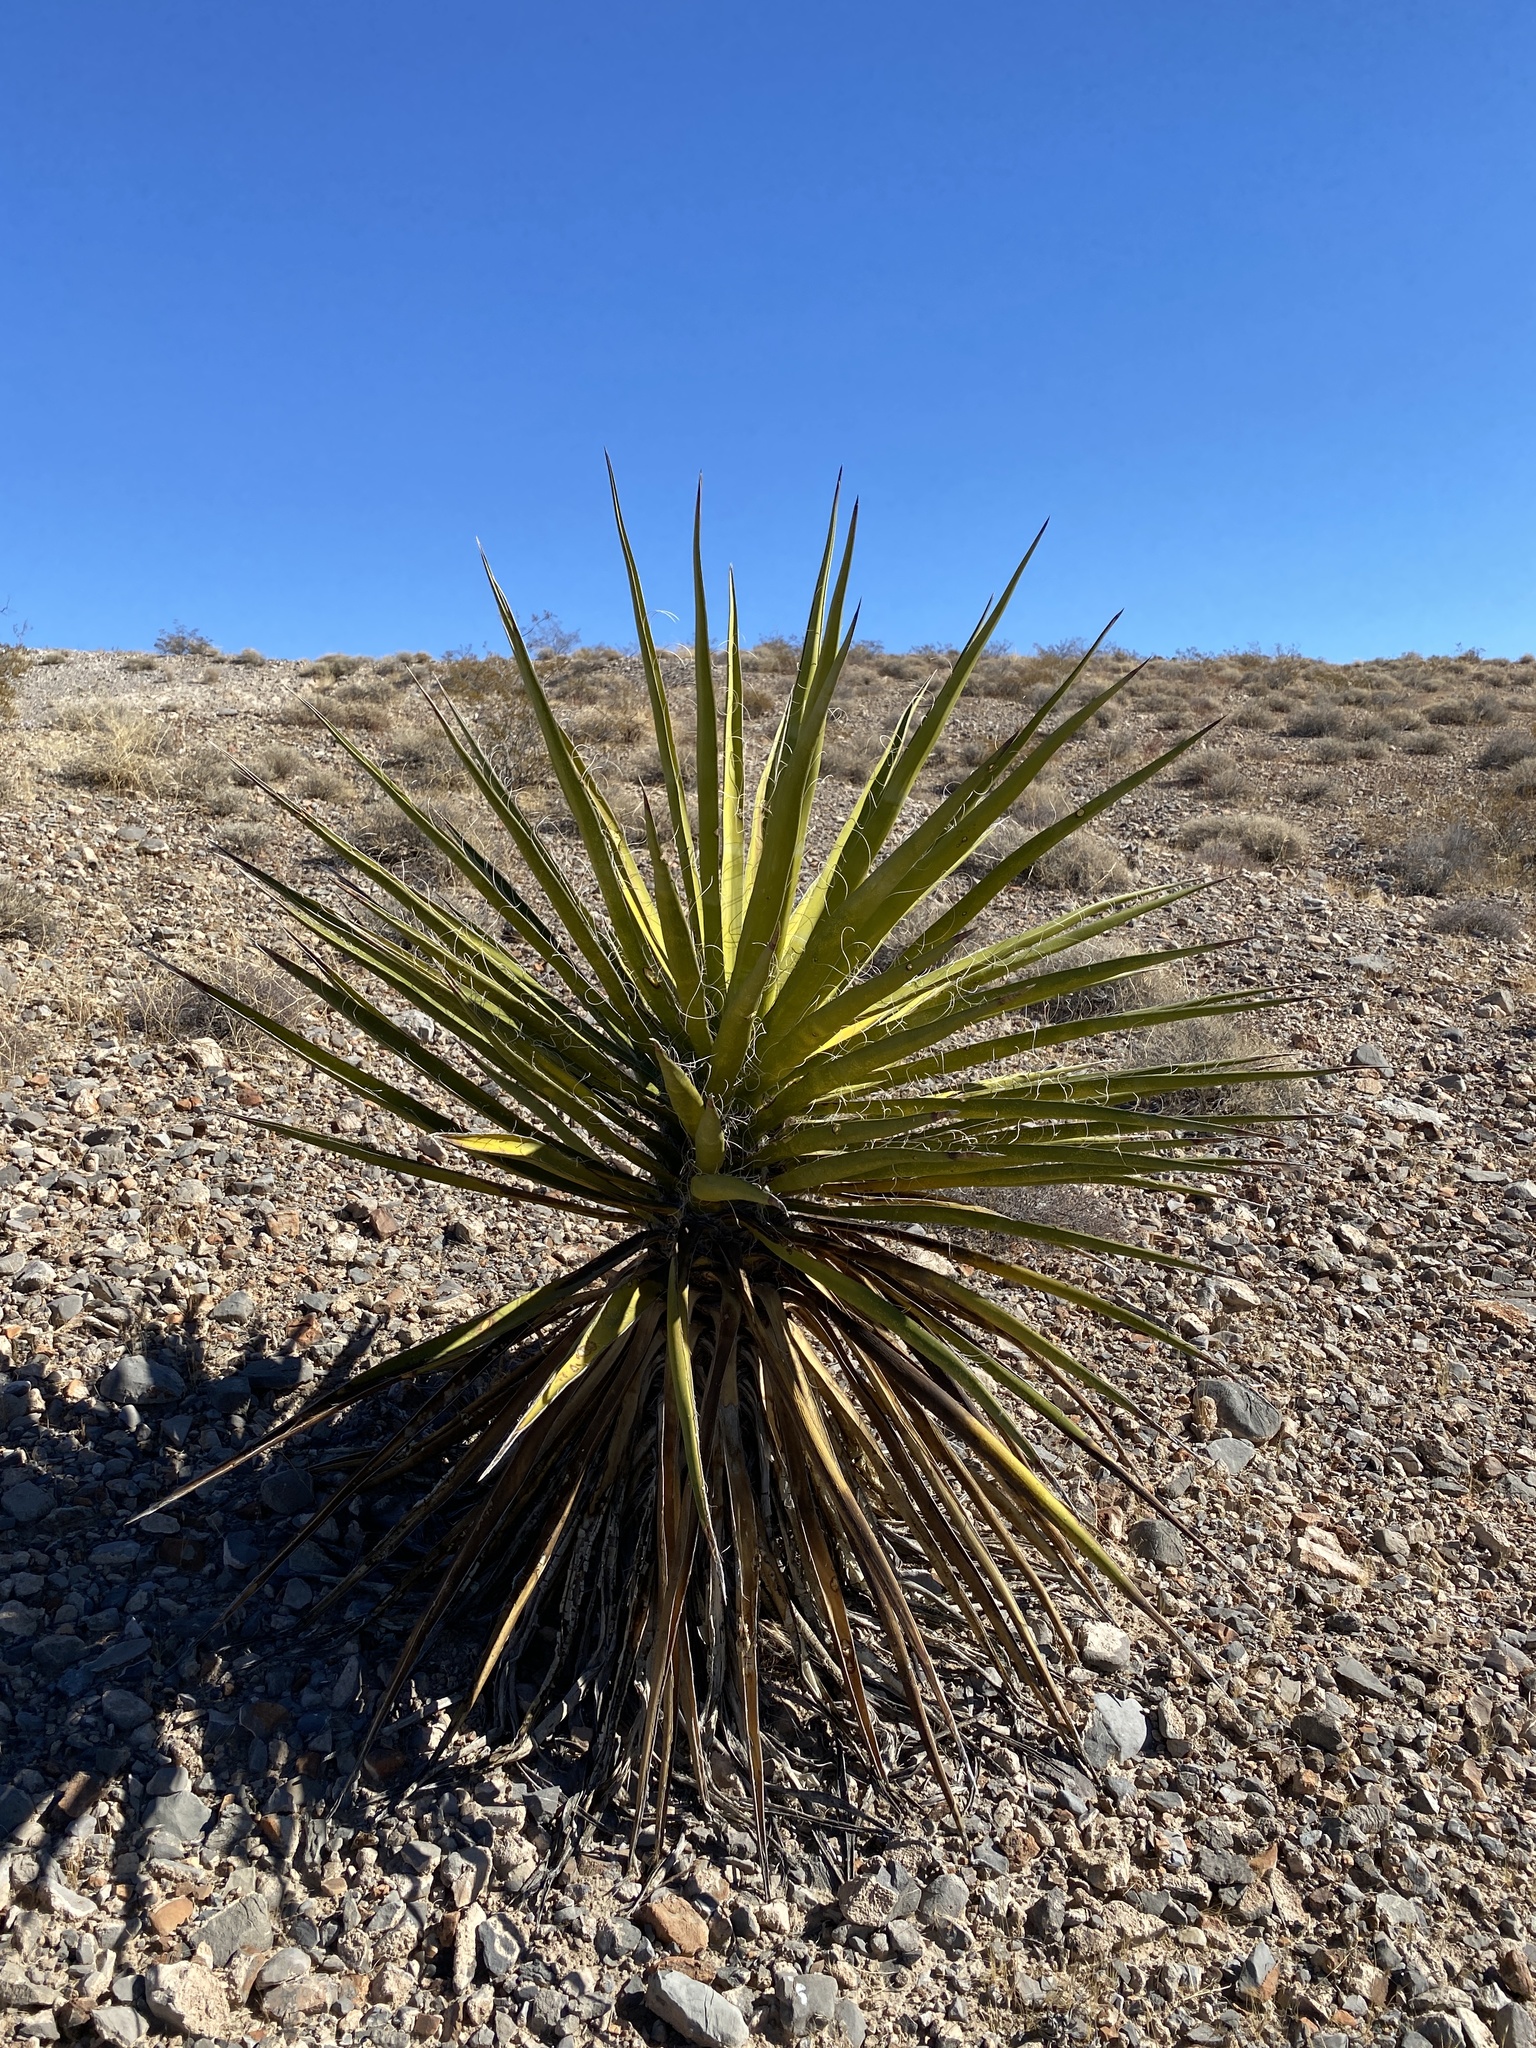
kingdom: Plantae
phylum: Tracheophyta
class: Liliopsida
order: Asparagales
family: Asparagaceae
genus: Yucca
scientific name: Yucca schidigera
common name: Mojave yucca
